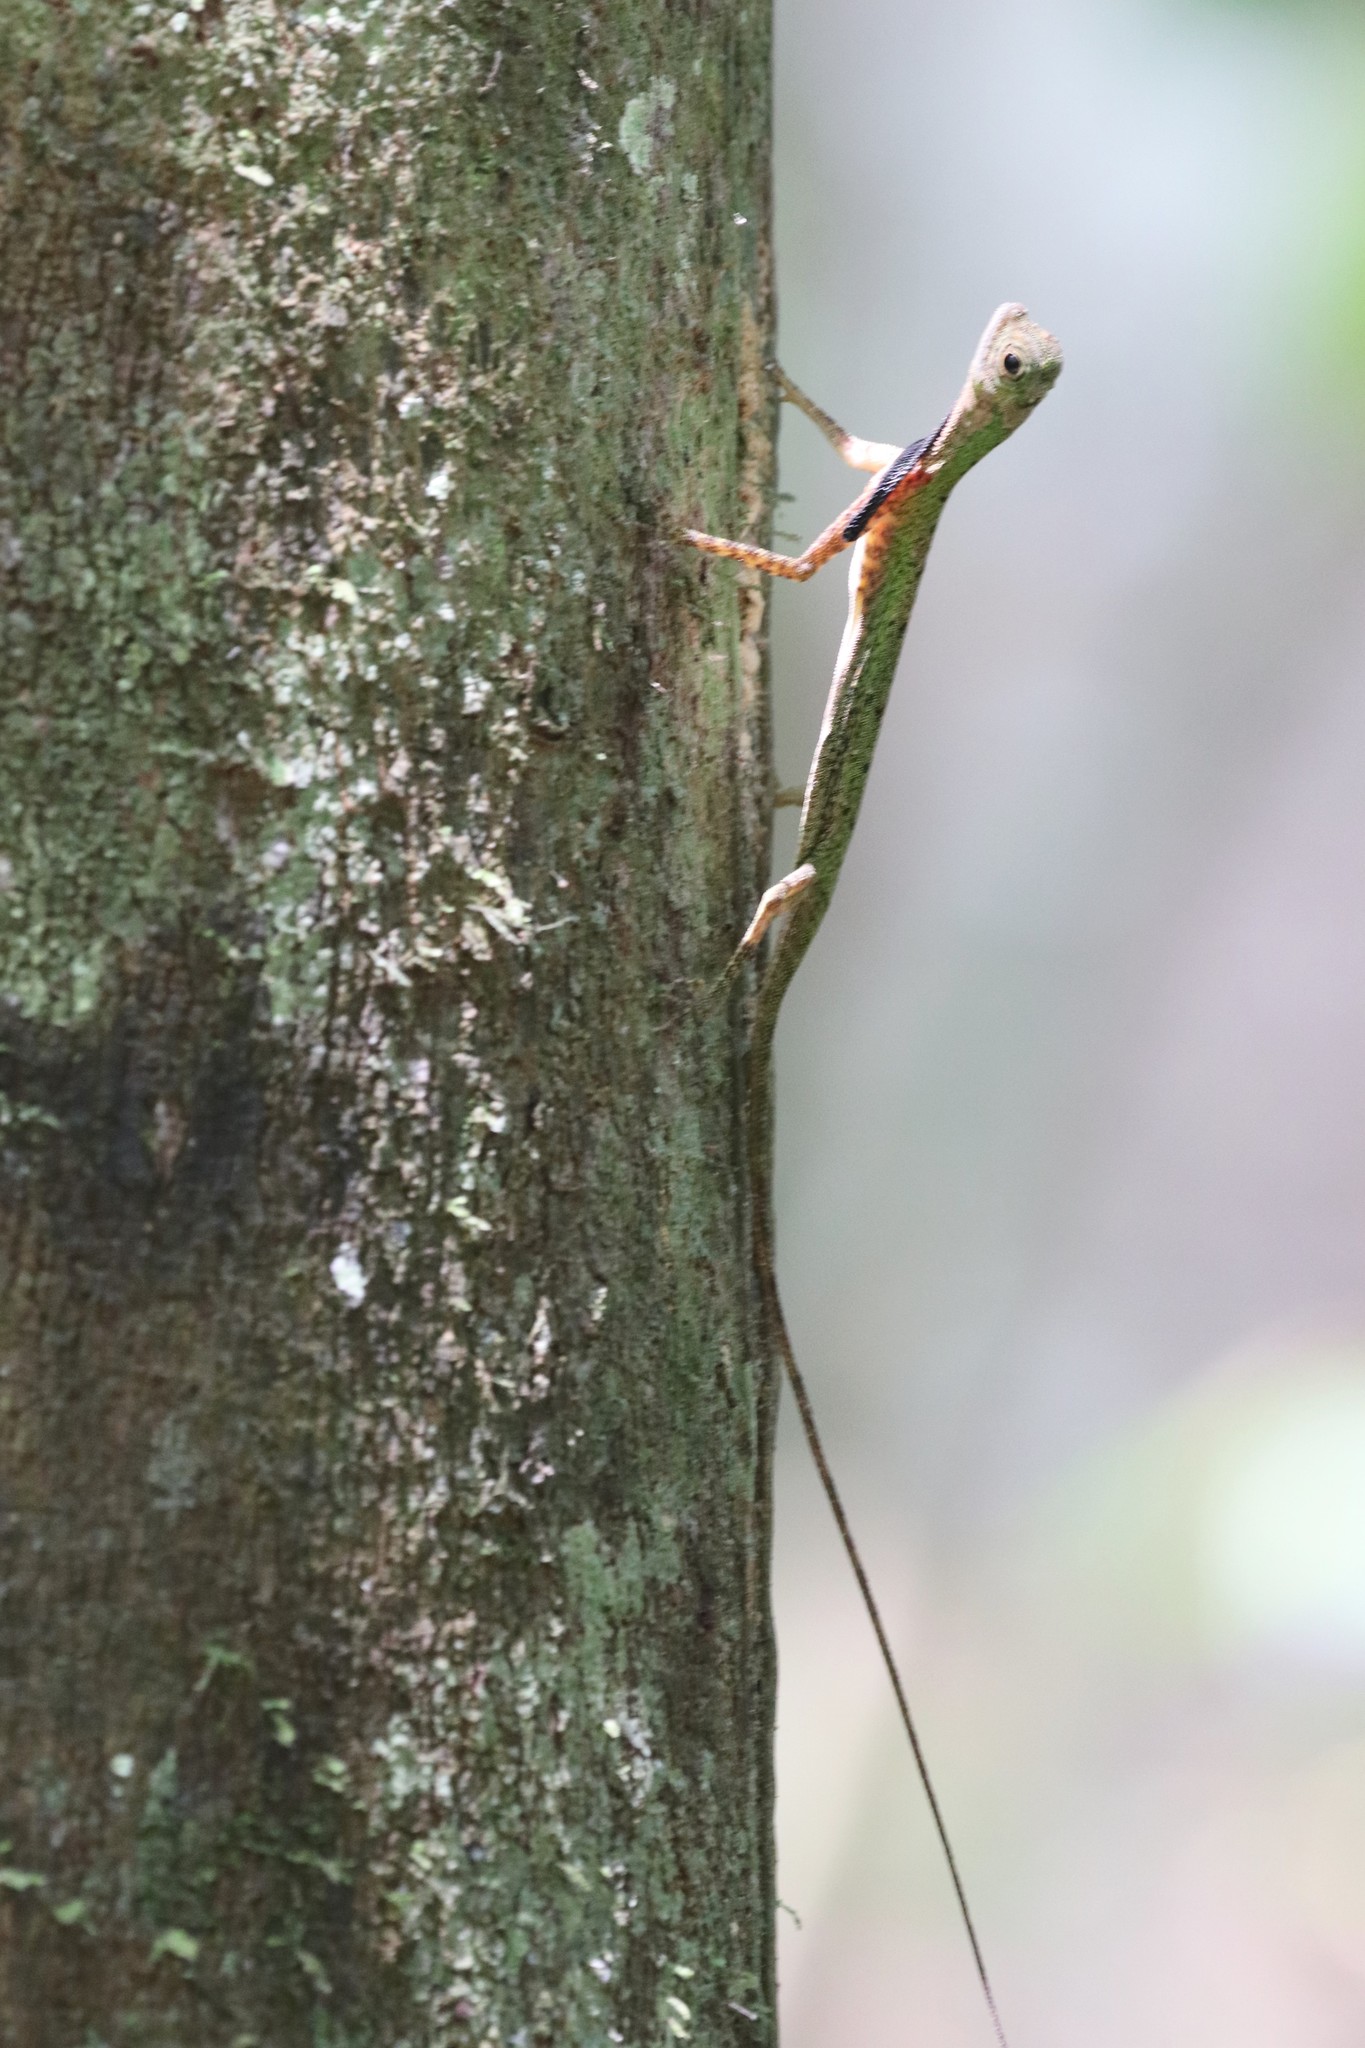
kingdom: Animalia
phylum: Chordata
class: Squamata
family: Agamidae
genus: Draco
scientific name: Draco melanopogon
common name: Black-barbed flying dragon
